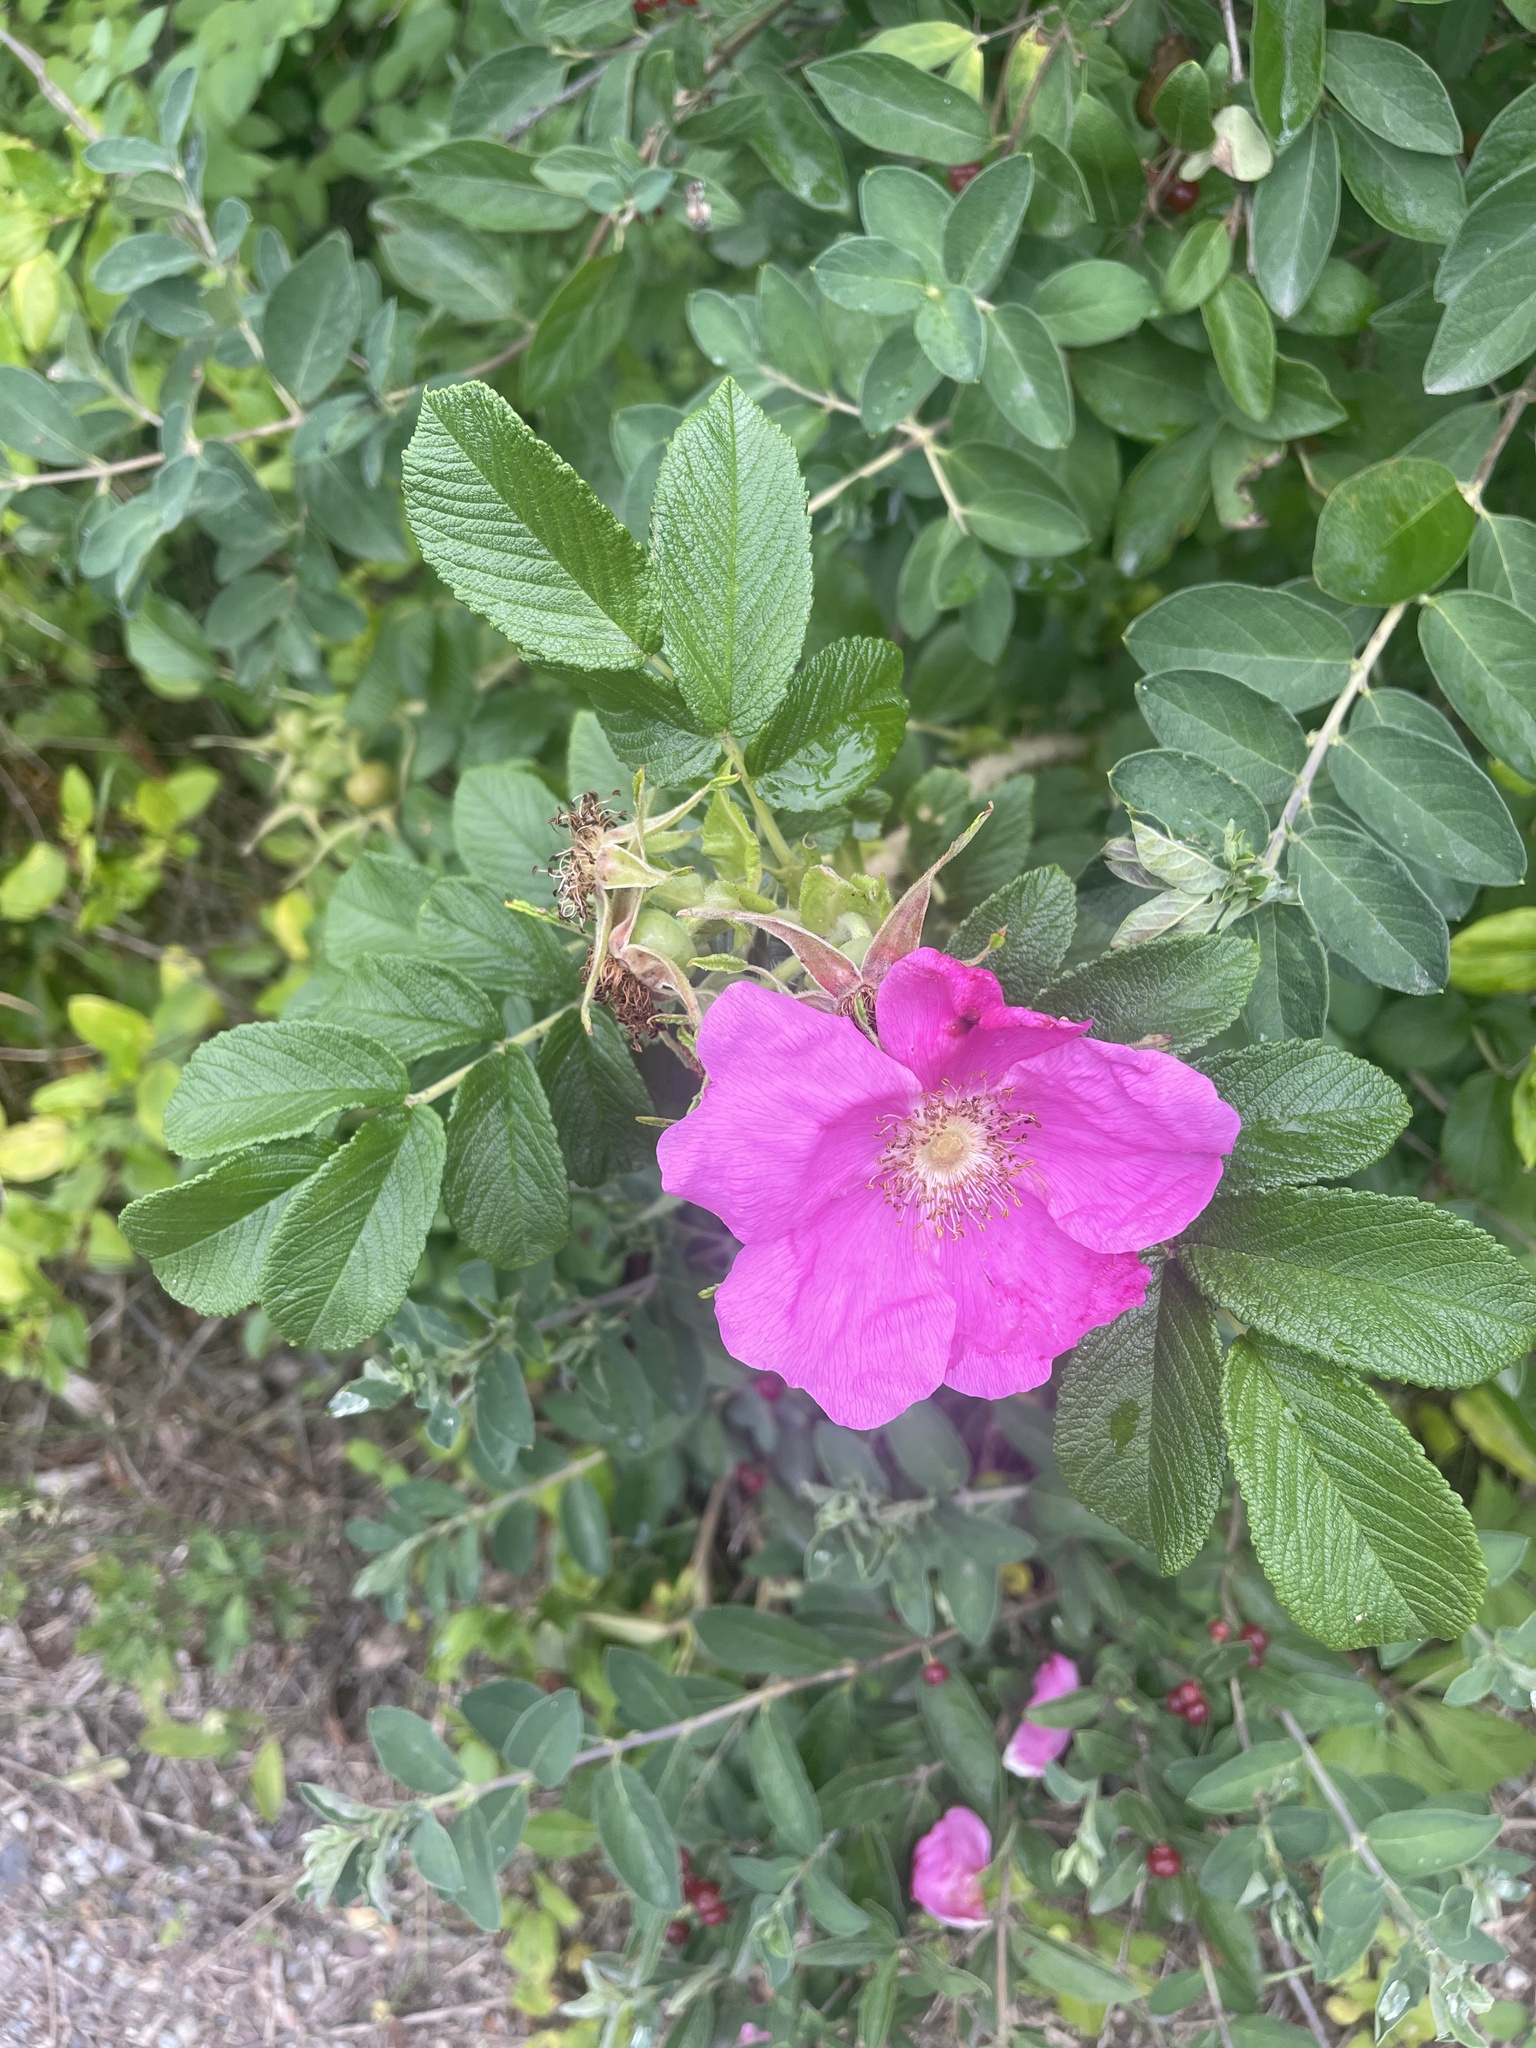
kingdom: Plantae
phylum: Tracheophyta
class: Magnoliopsida
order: Rosales
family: Rosaceae
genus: Rosa
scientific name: Rosa rugosa
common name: Japanese rose
